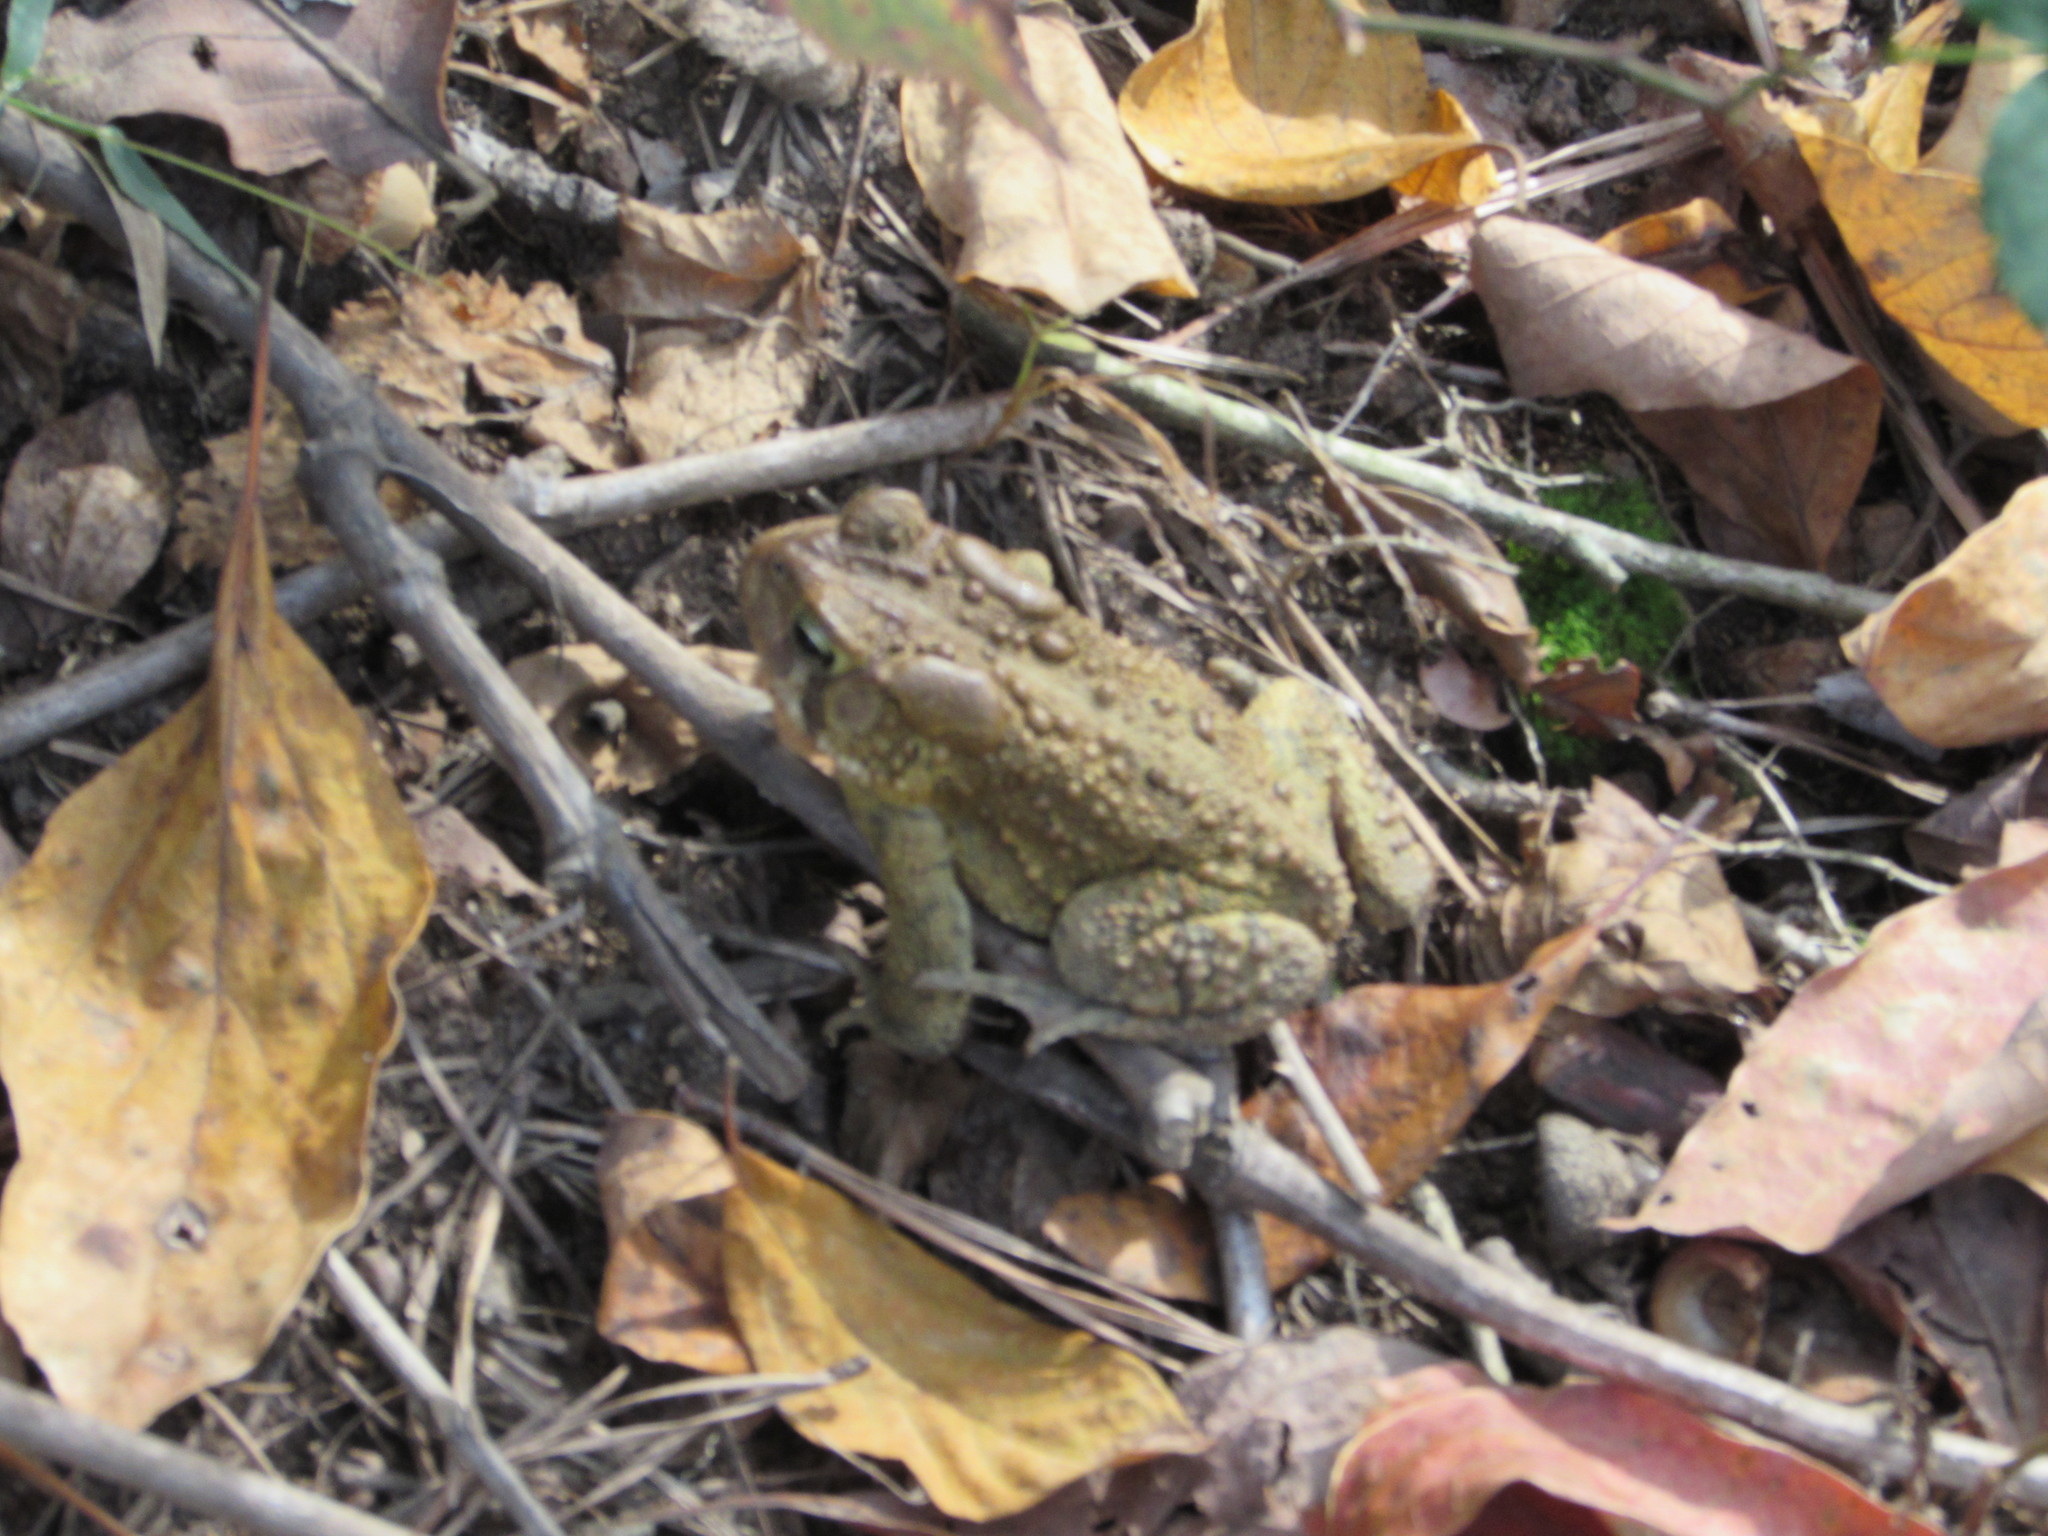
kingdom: Animalia
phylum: Chordata
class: Amphibia
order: Anura
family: Bufonidae
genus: Anaxyrus
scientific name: Anaxyrus americanus
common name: American toad
